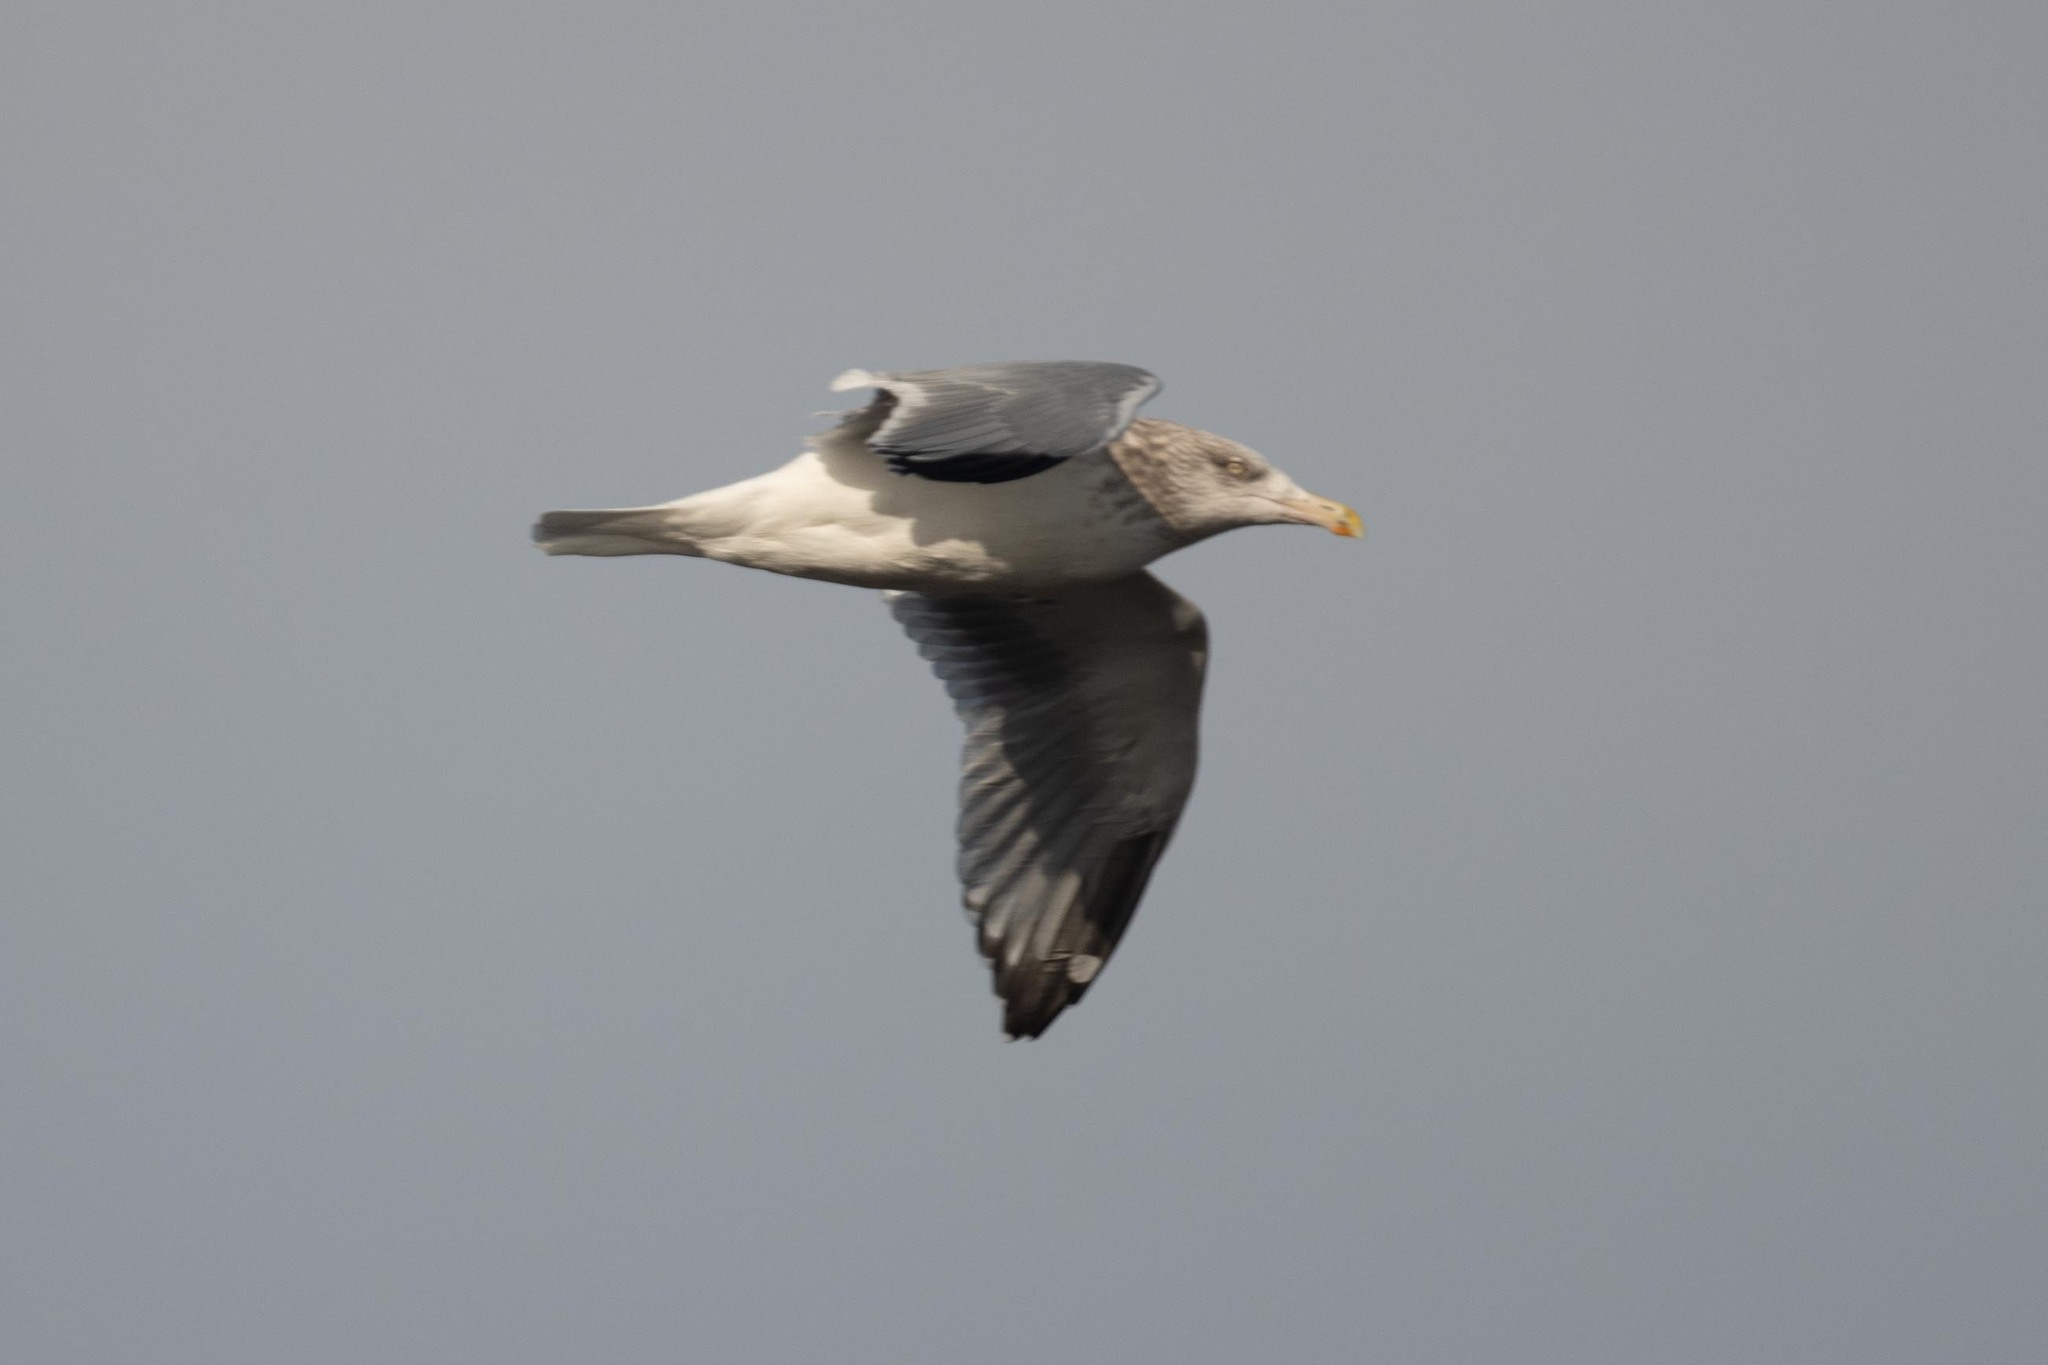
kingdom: Animalia
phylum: Chordata
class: Aves
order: Charadriiformes
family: Laridae
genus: Larus
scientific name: Larus argentatus
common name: Herring gull
